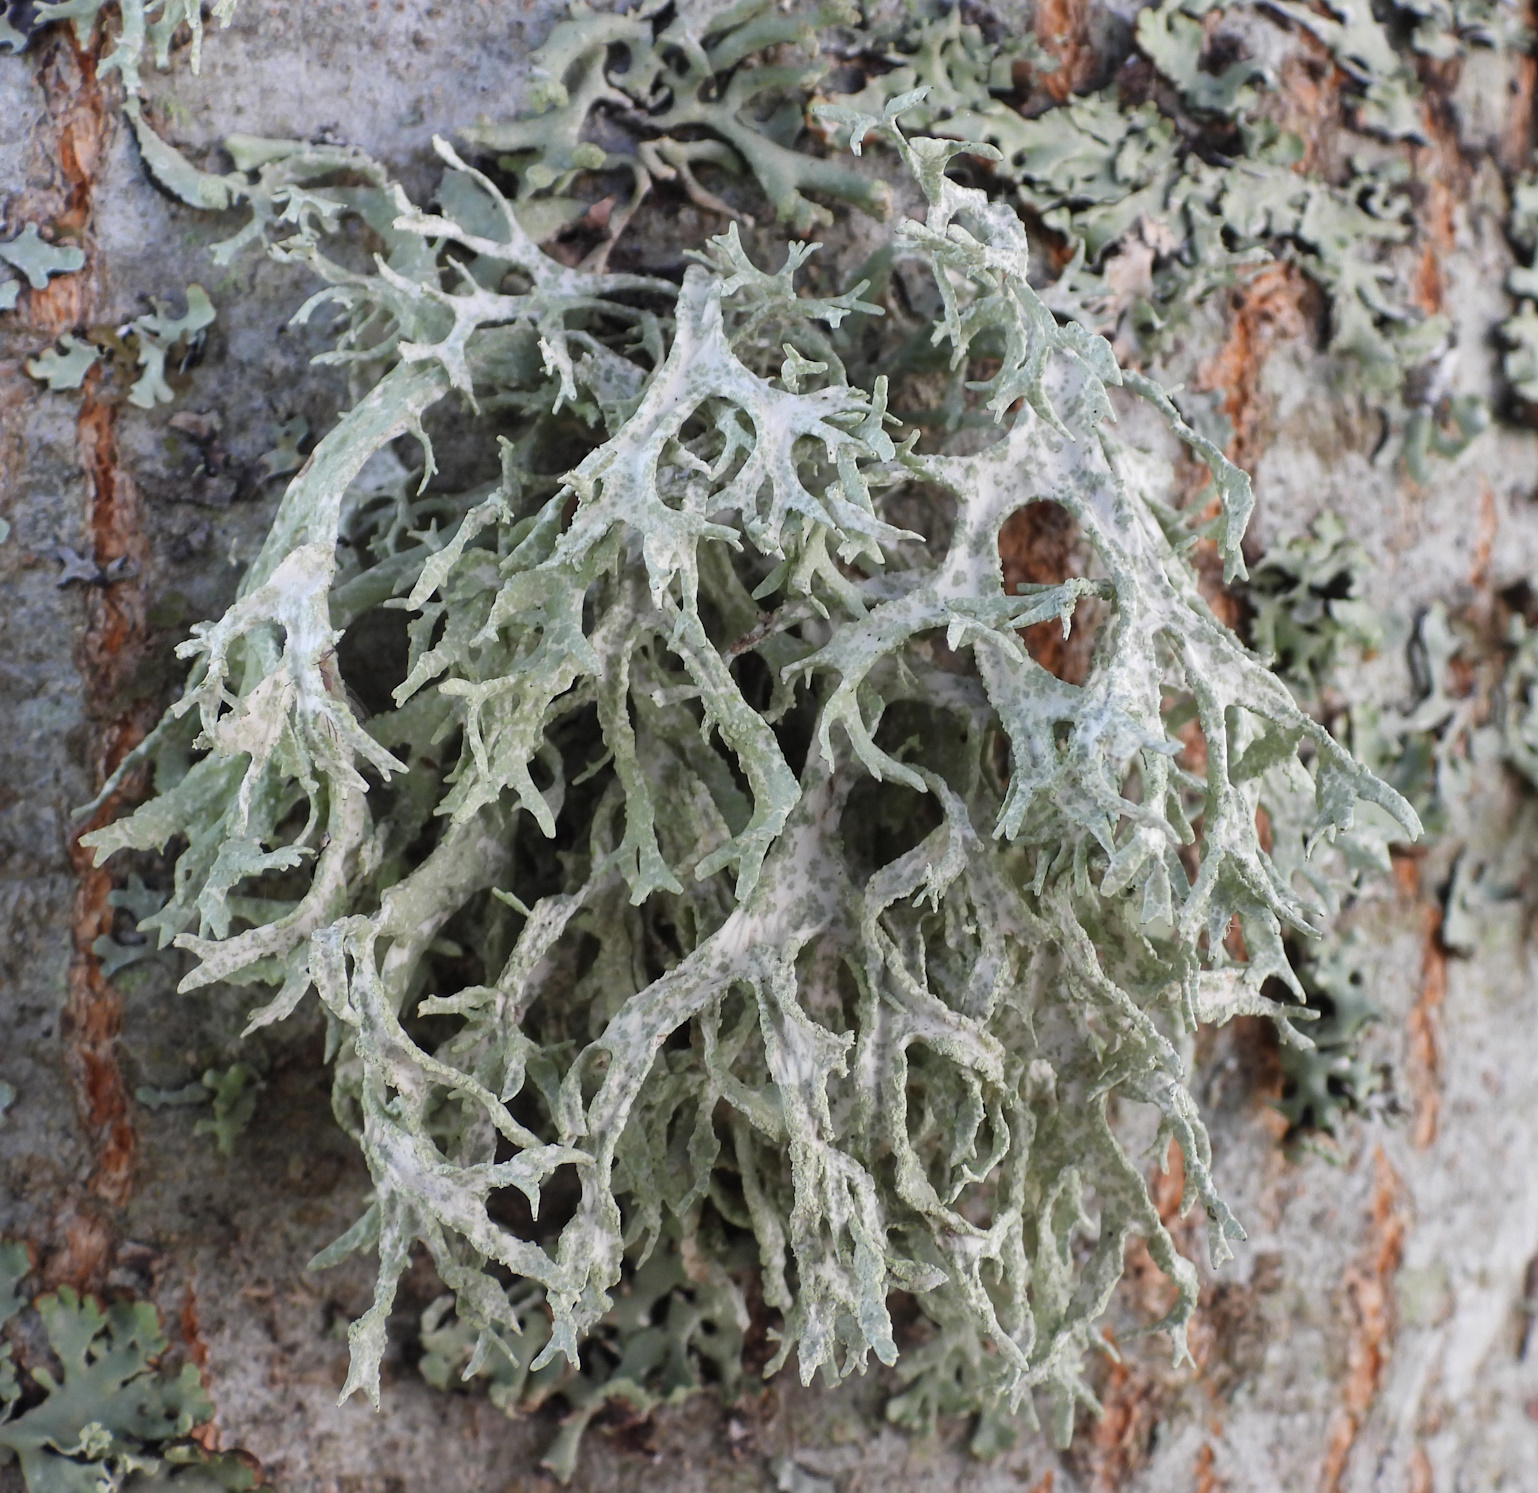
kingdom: Fungi
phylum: Ascomycota
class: Lecanoromycetes
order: Lecanorales
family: Parmeliaceae
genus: Evernia
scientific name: Evernia prunastri
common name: Oak moss
